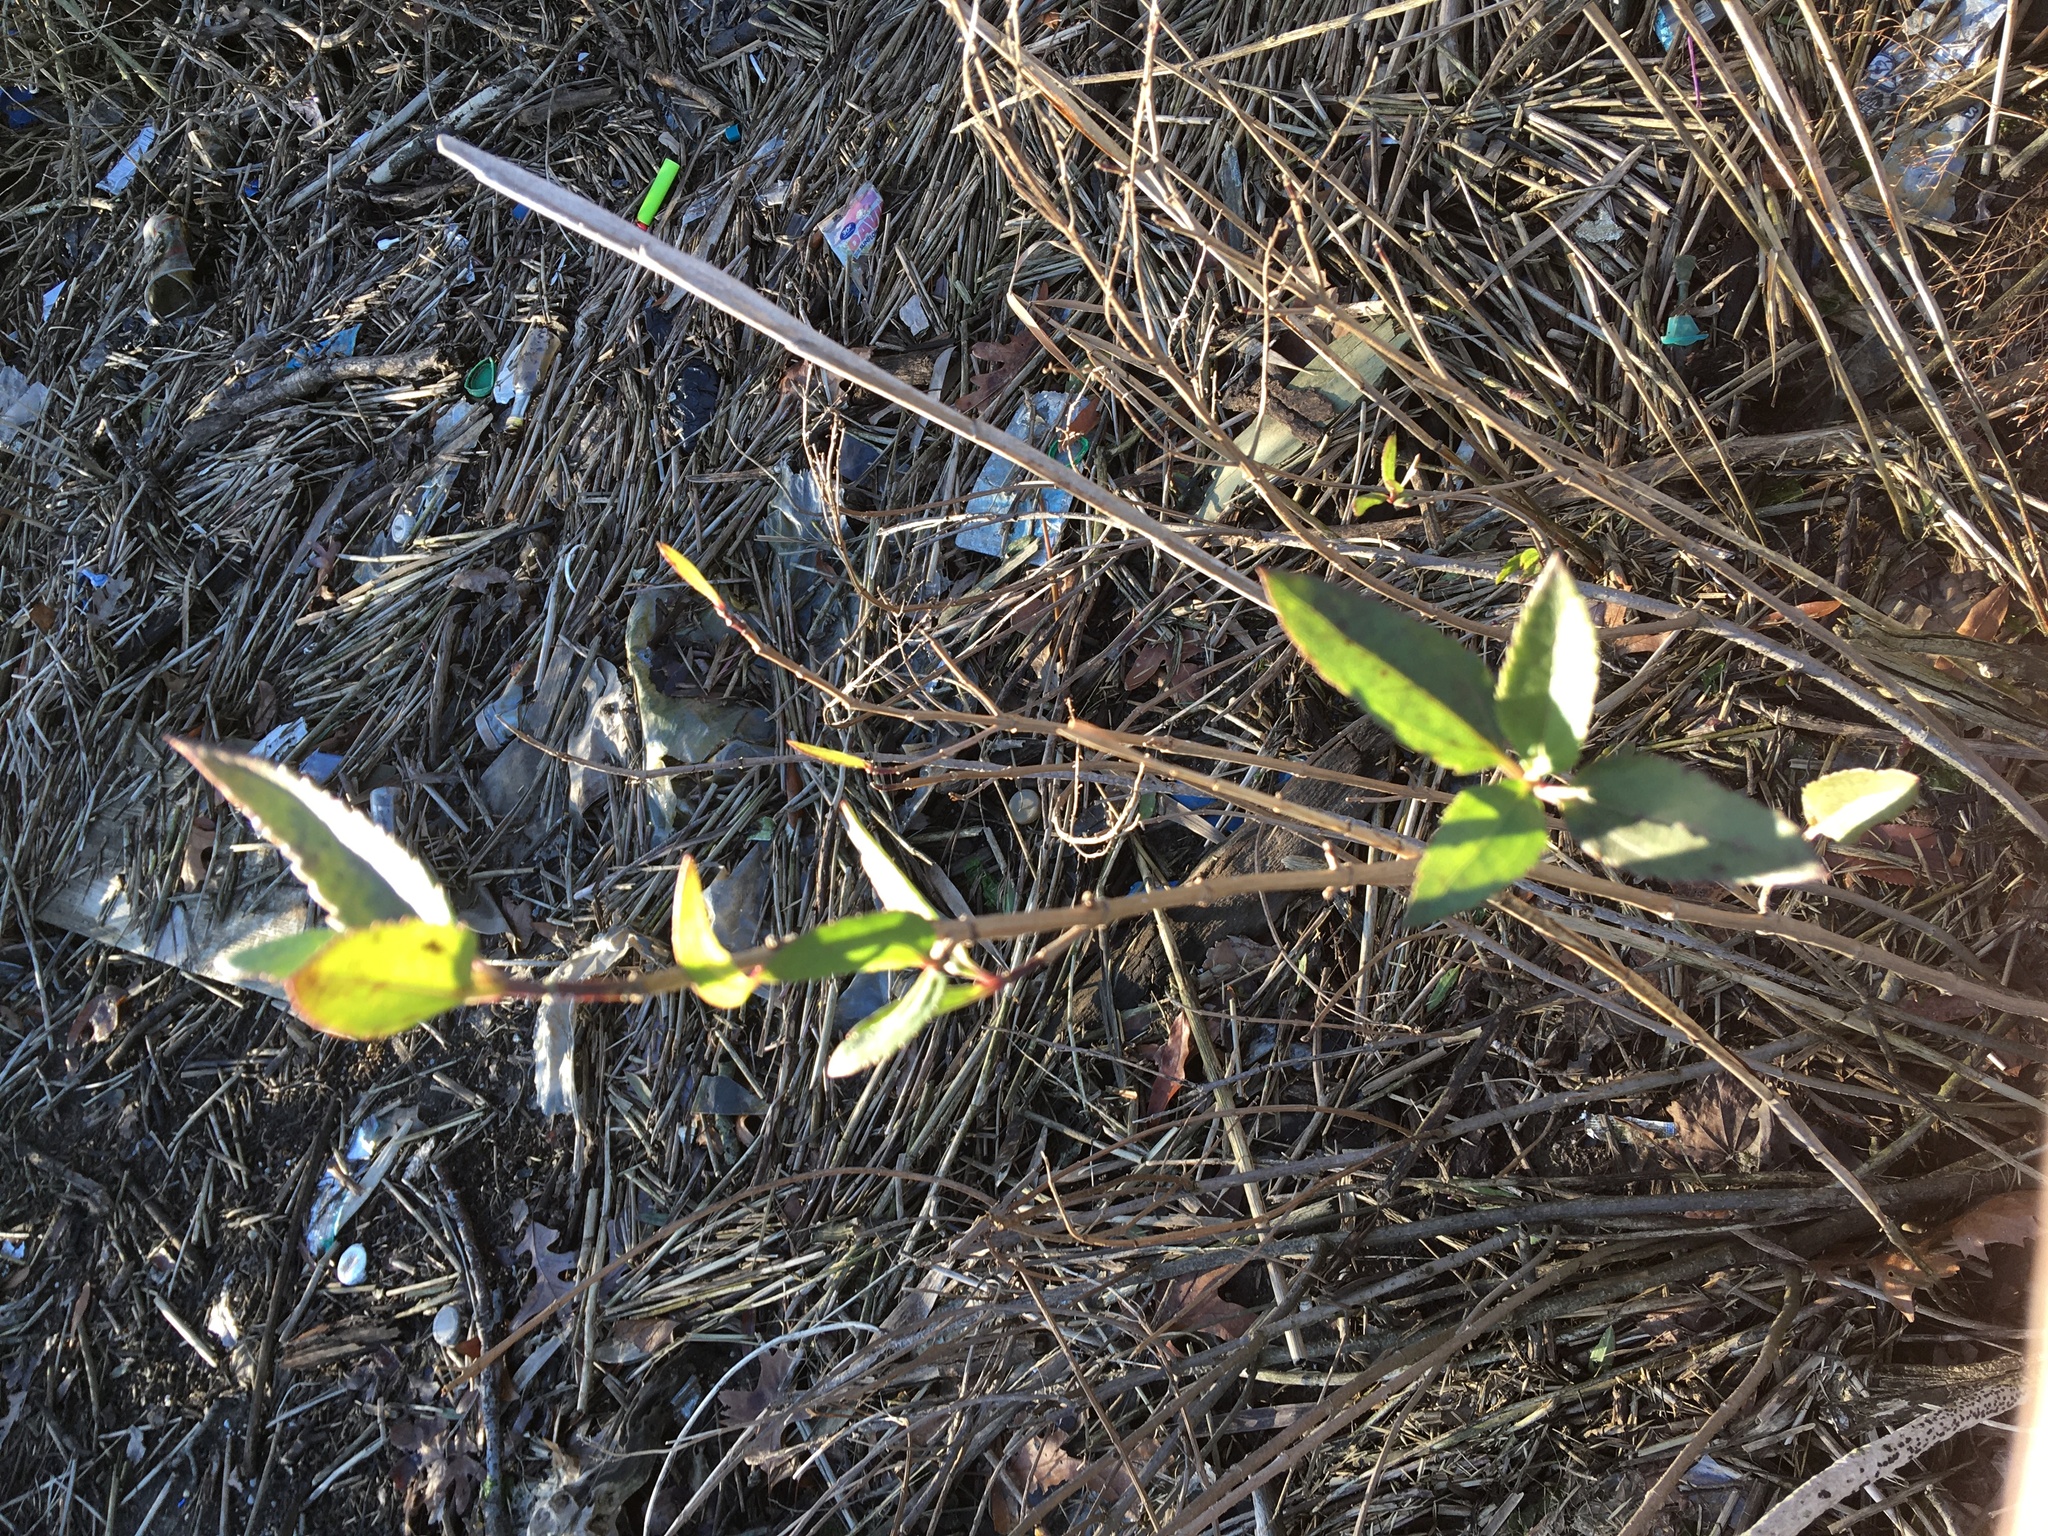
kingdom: Plantae
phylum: Tracheophyta
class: Magnoliopsida
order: Asterales
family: Asteraceae
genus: Iva
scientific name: Iva frutescens
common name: Big-leaved marsh-elder
